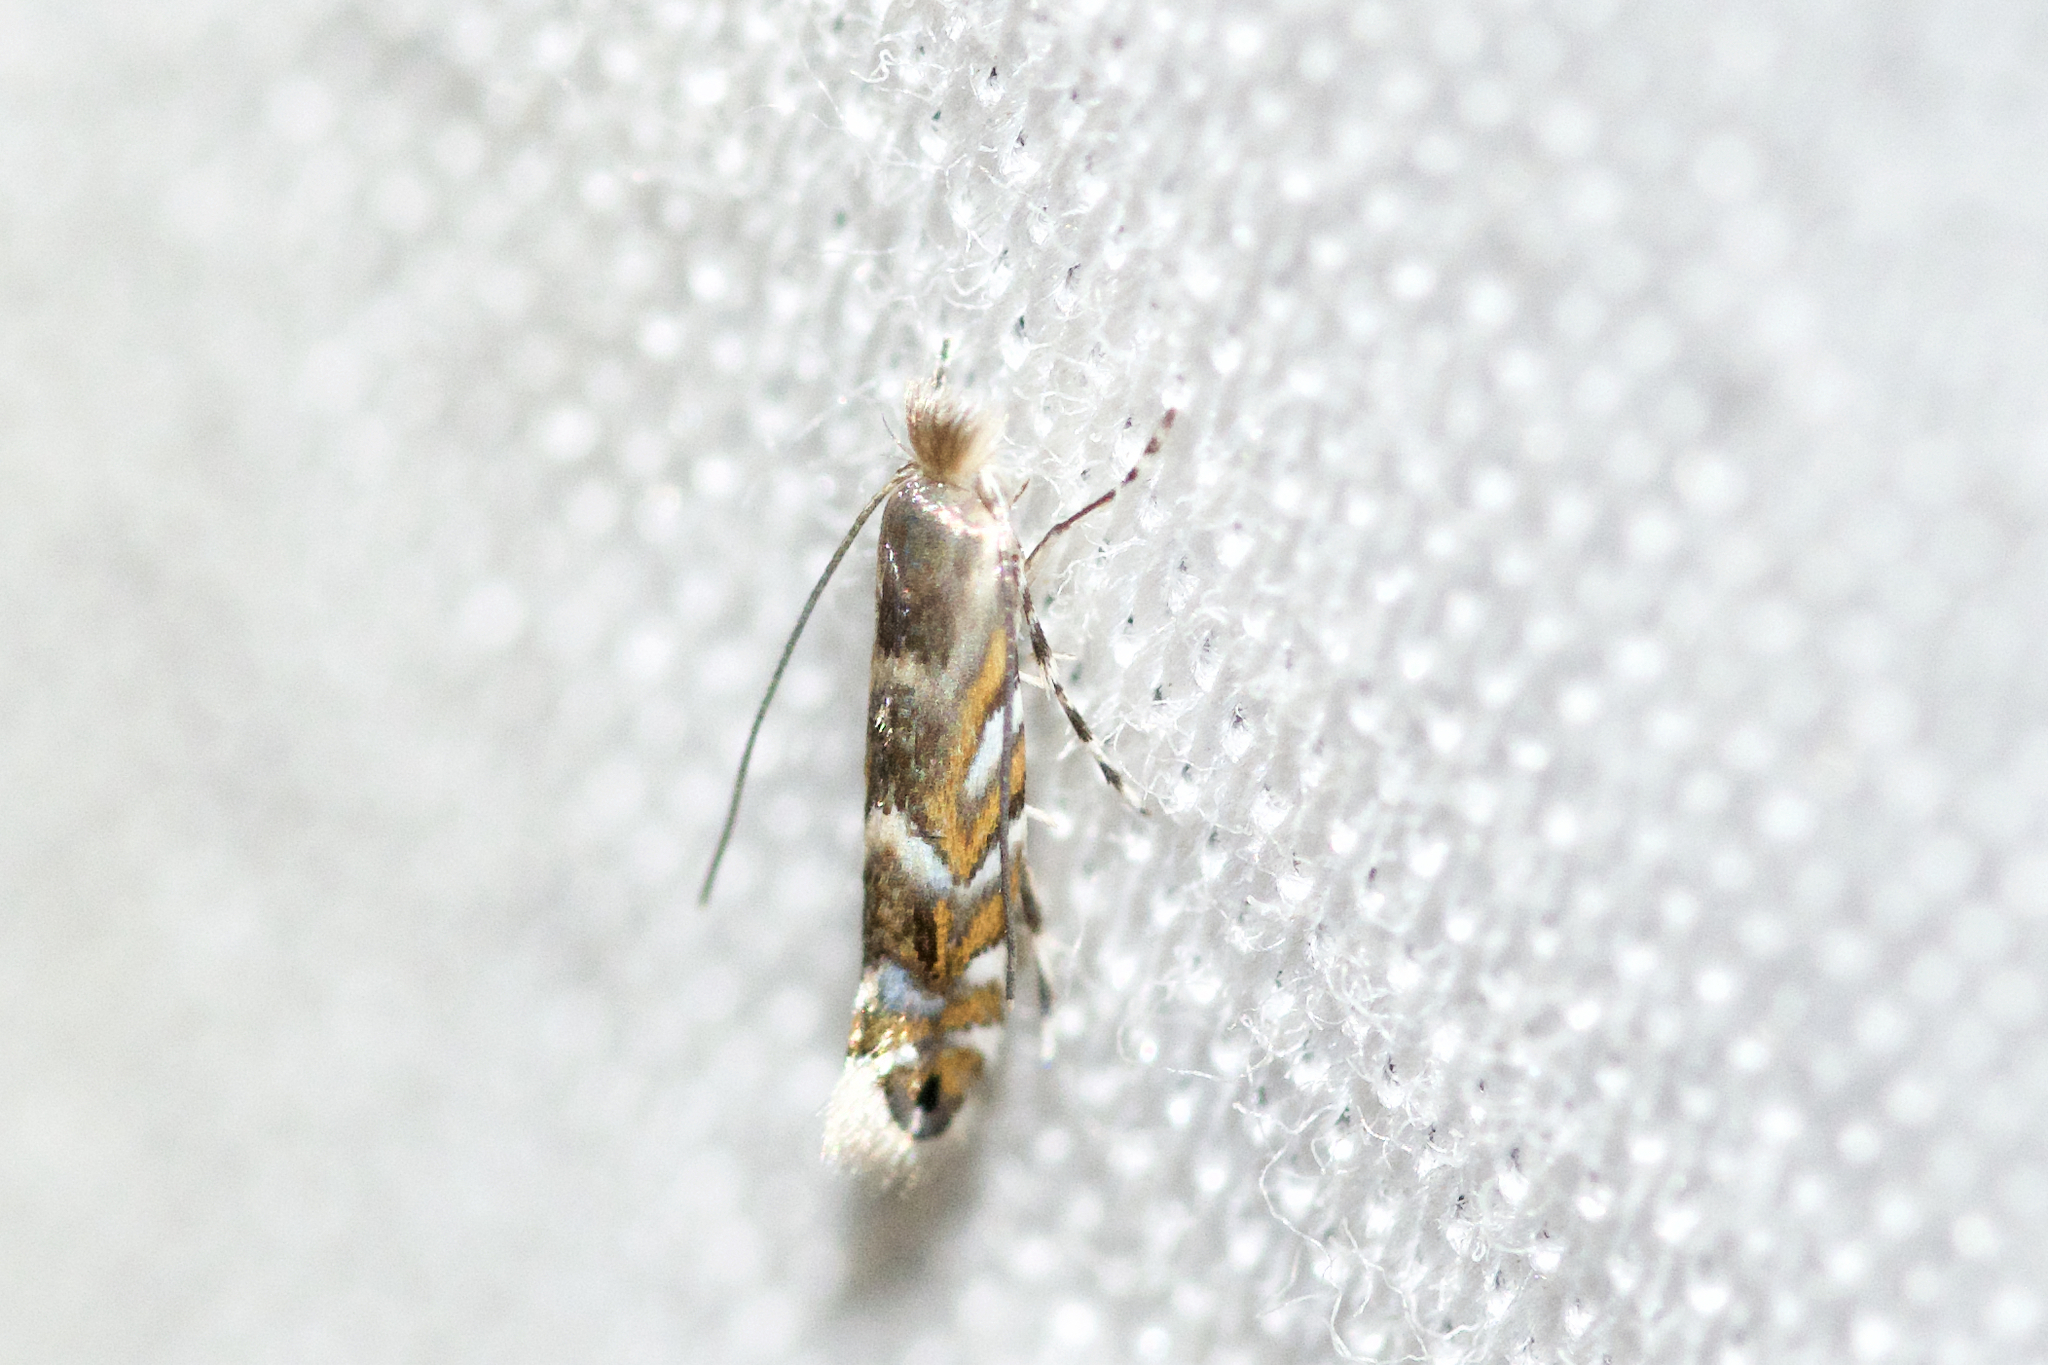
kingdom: Animalia
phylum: Arthropoda
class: Insecta
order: Lepidoptera
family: Gracillariidae
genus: Macrosaccus
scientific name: Macrosaccus robiniella
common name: Leaf blotch miner moth
